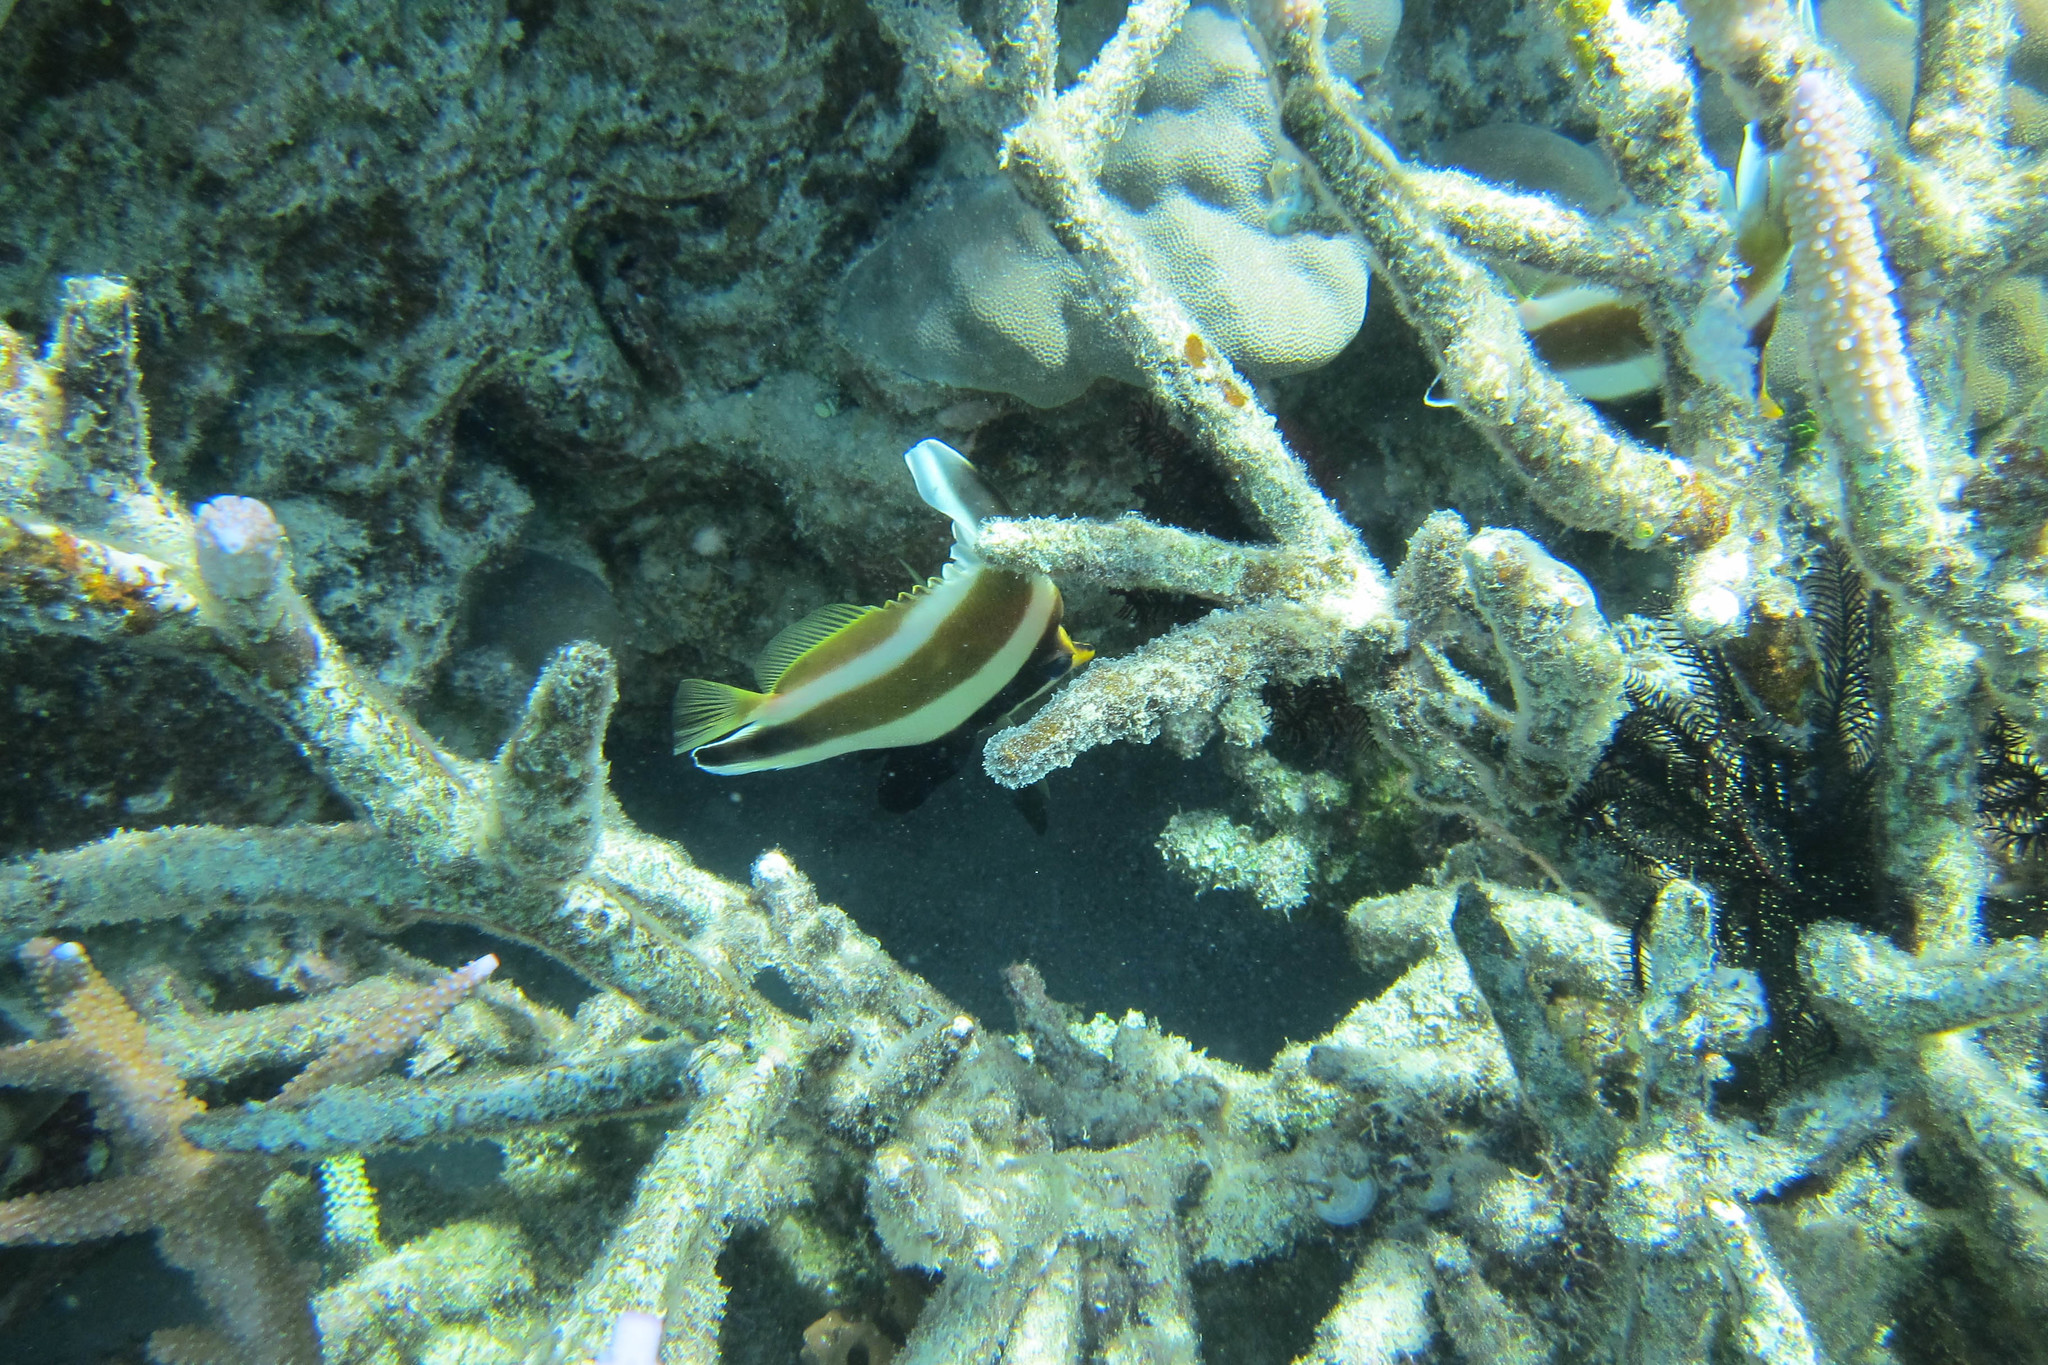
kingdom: Animalia
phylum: Chordata
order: Perciformes
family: Chaetodontidae
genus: Heniochus
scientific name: Heniochus chrysostomus
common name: Horned bannerfish
